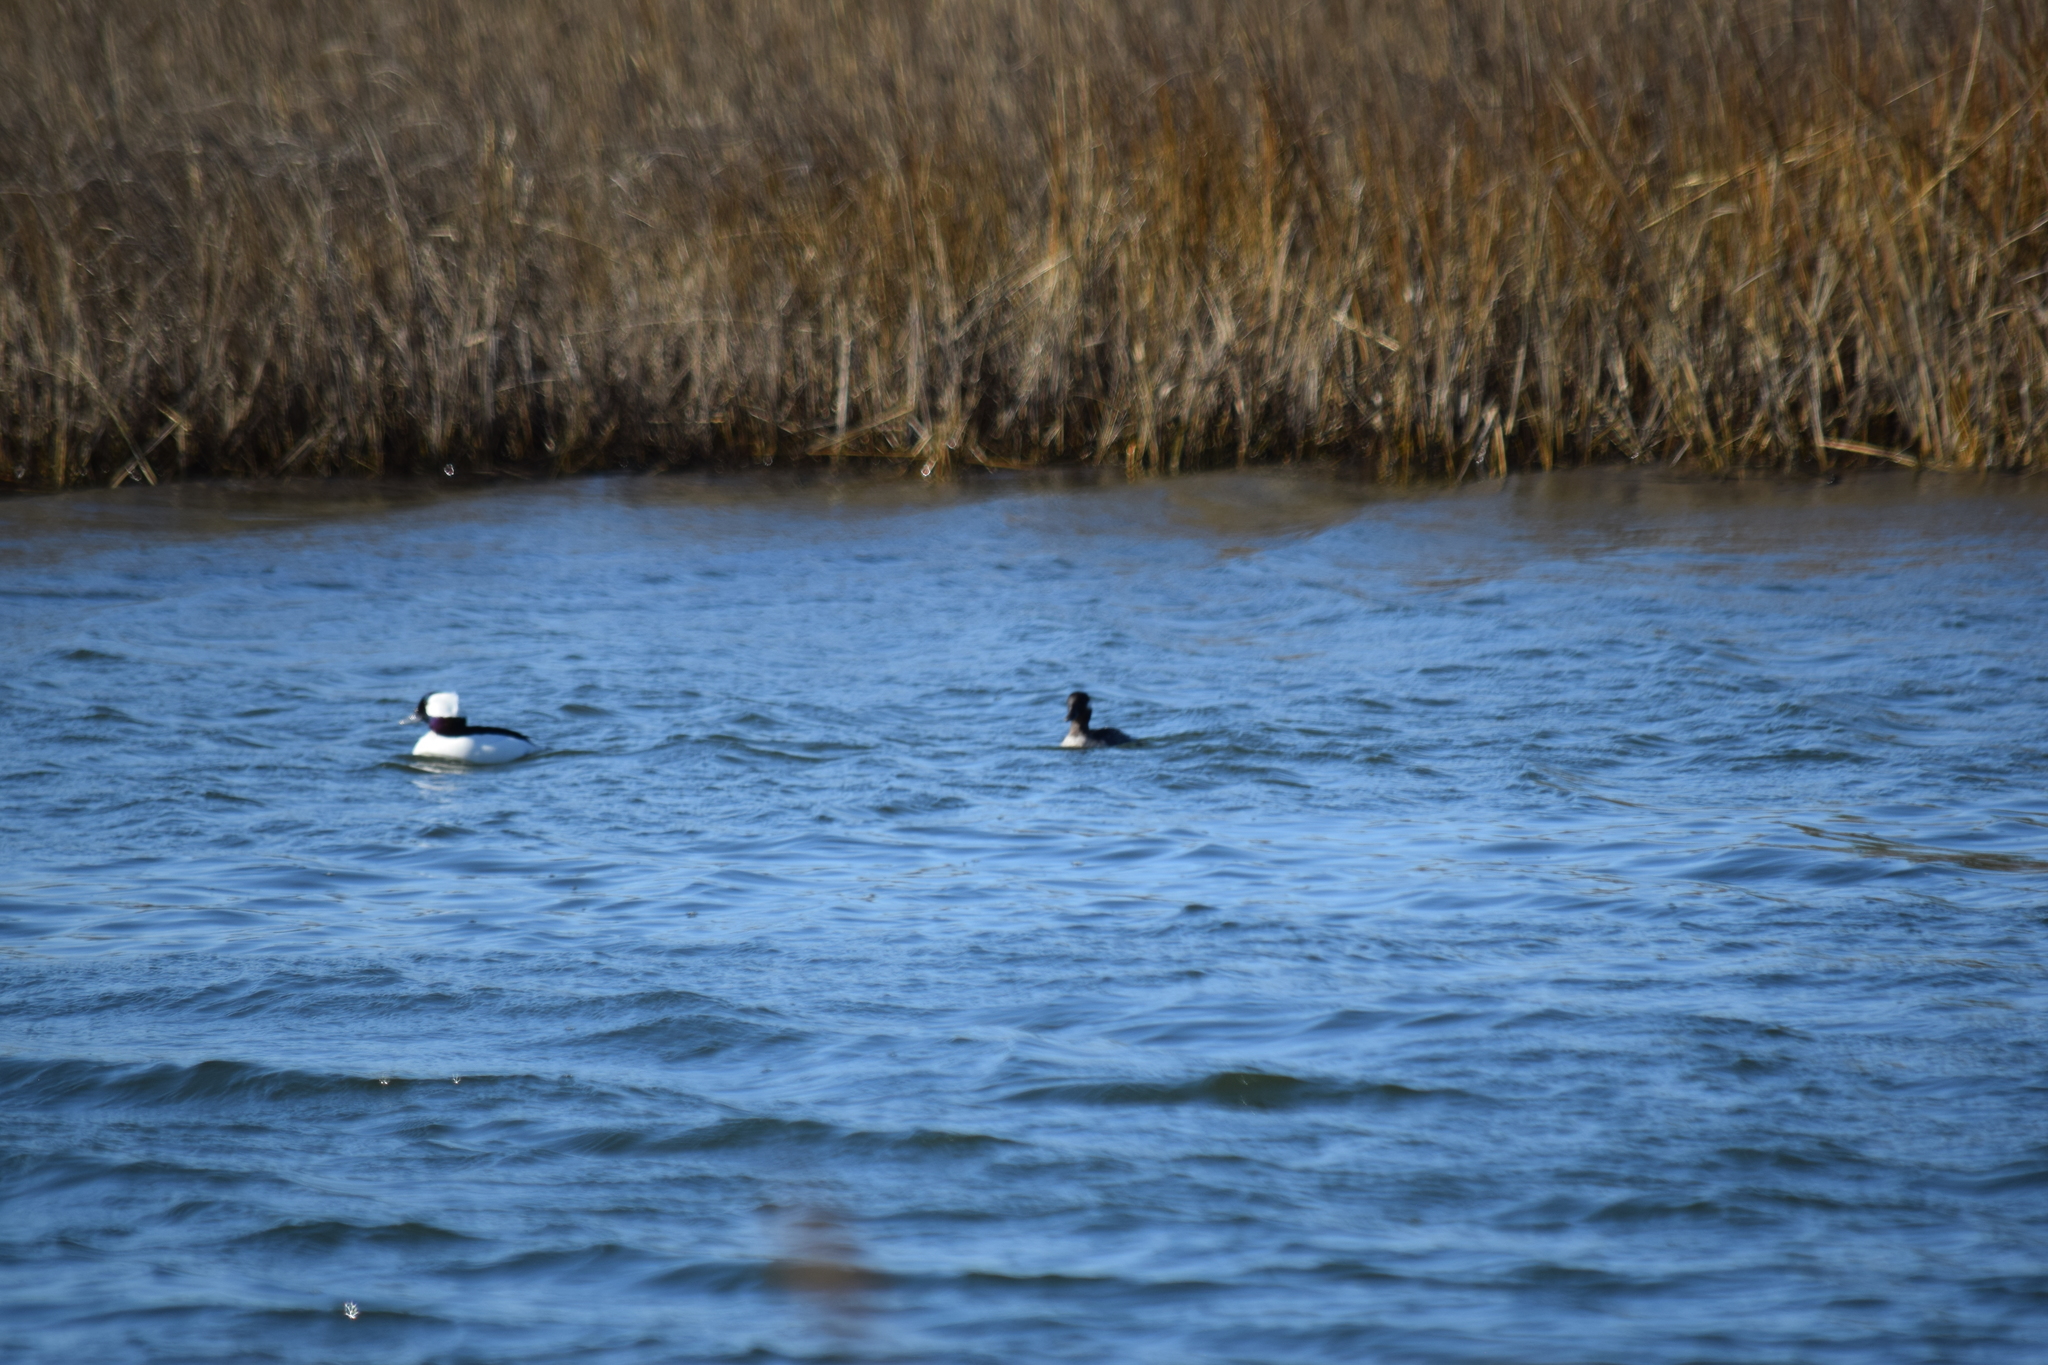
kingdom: Animalia
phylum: Chordata
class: Aves
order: Anseriformes
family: Anatidae
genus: Bucephala
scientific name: Bucephala albeola
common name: Bufflehead
